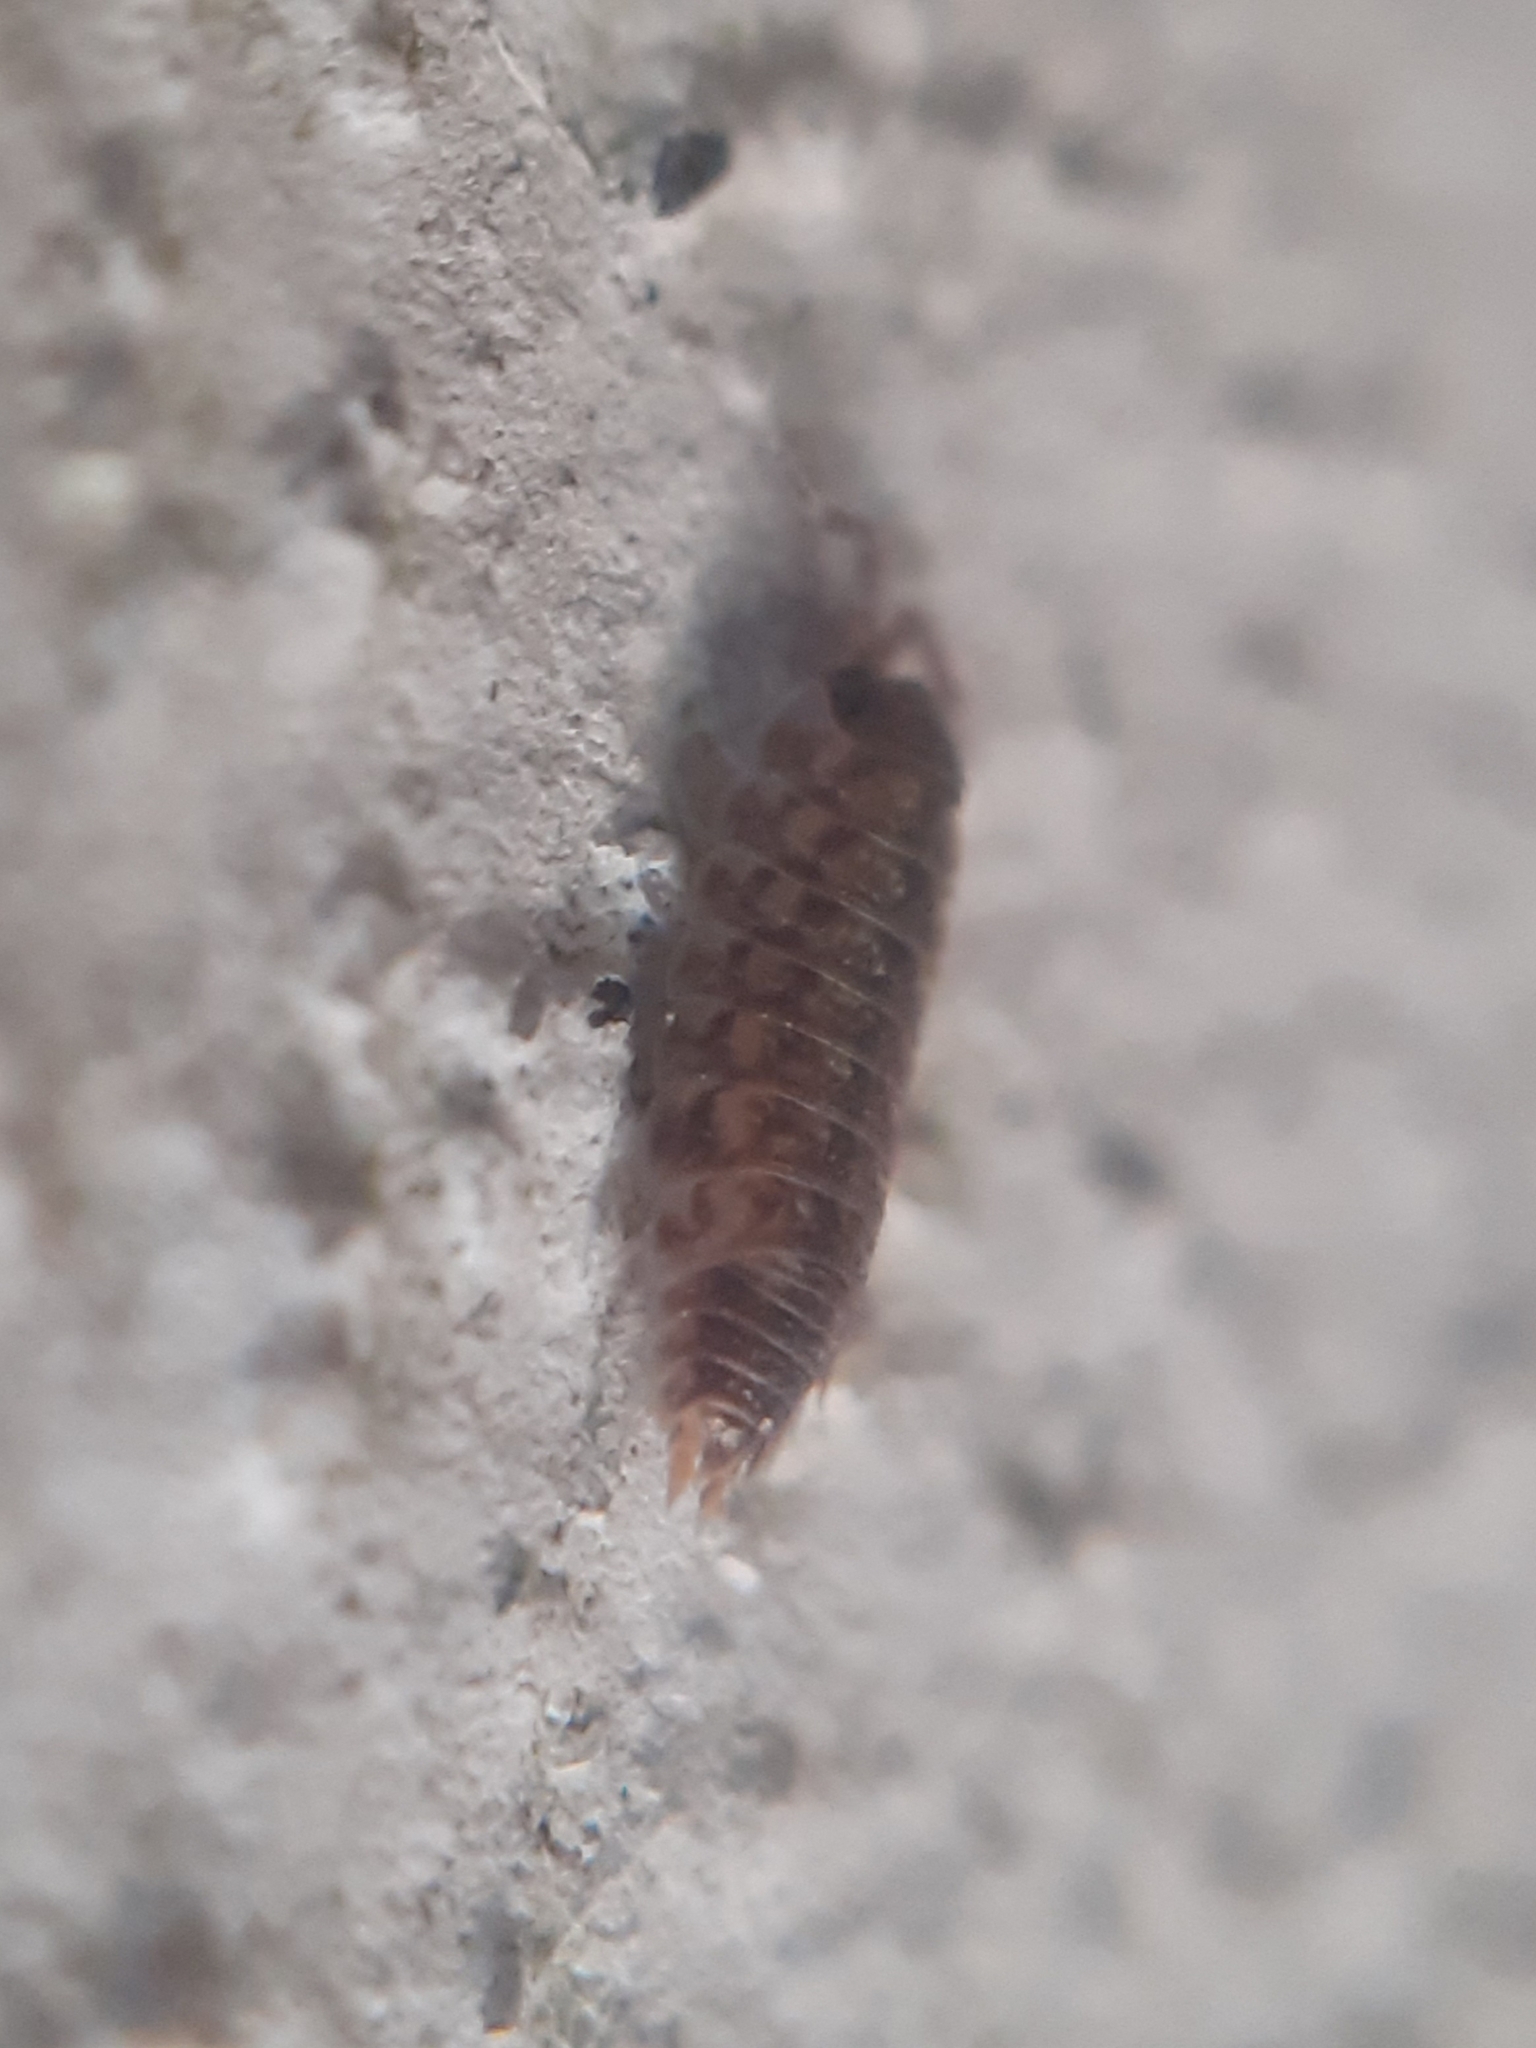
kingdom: Animalia
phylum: Arthropoda
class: Malacostraca
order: Isopoda
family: Porcellionidae
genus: Porcellio
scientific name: Porcellio spinicornis
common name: Painted woodlouse
